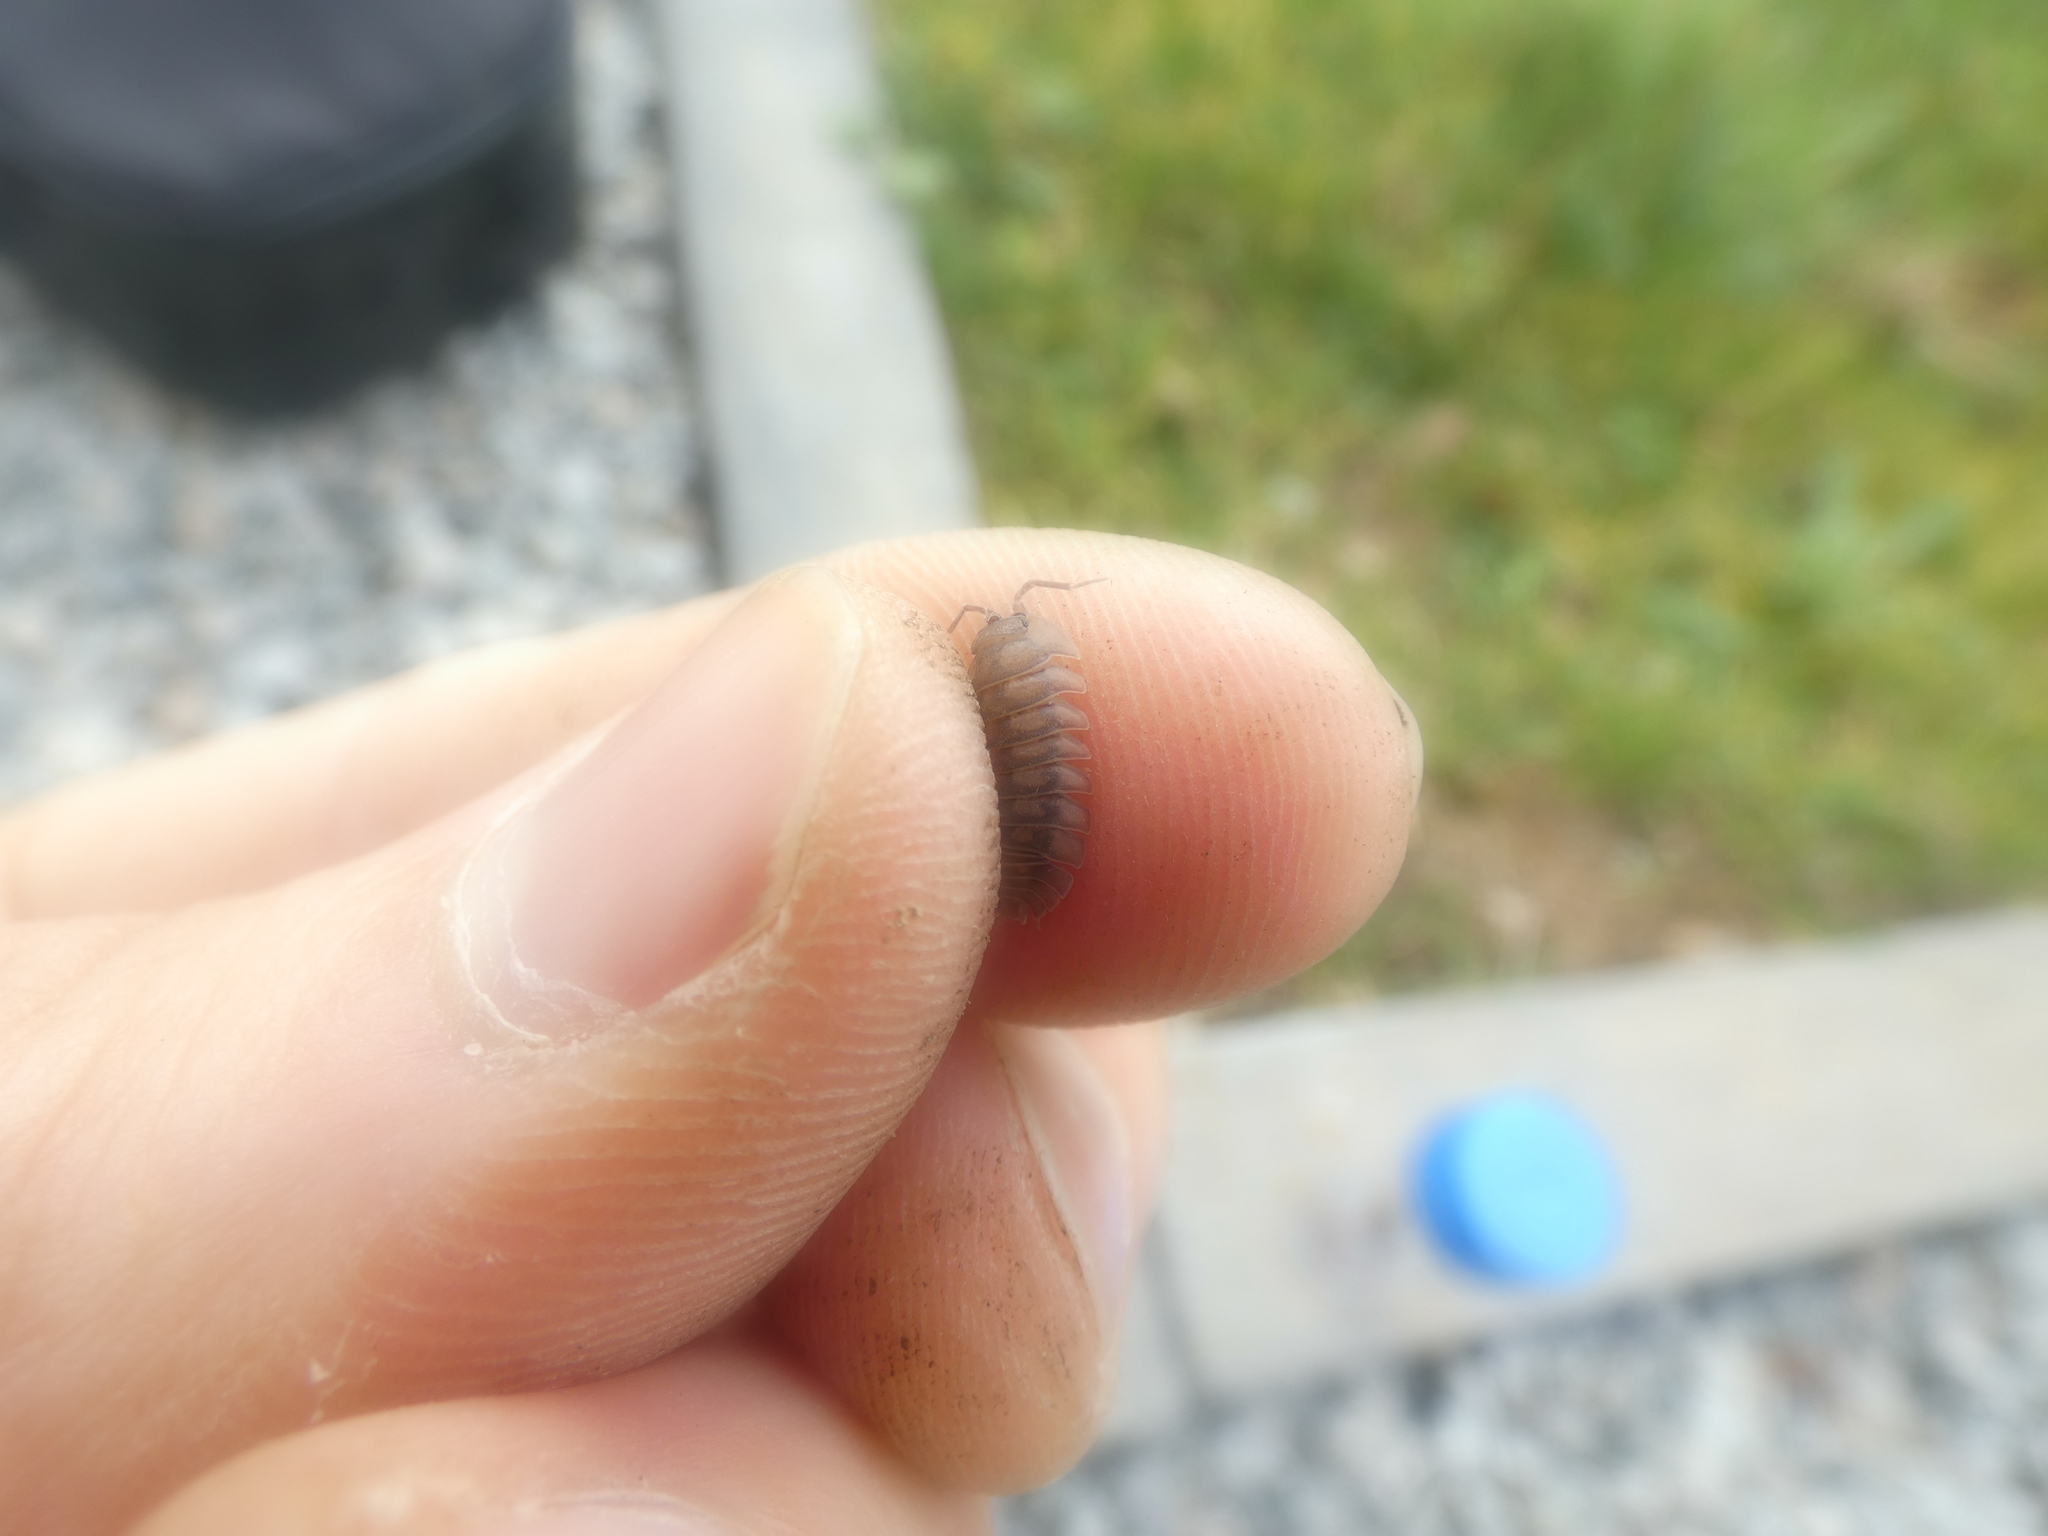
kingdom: Animalia
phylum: Arthropoda
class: Malacostraca
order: Isopoda
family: Armadillidiidae
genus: Armadillidium
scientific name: Armadillidium nasatum
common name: Isopod
